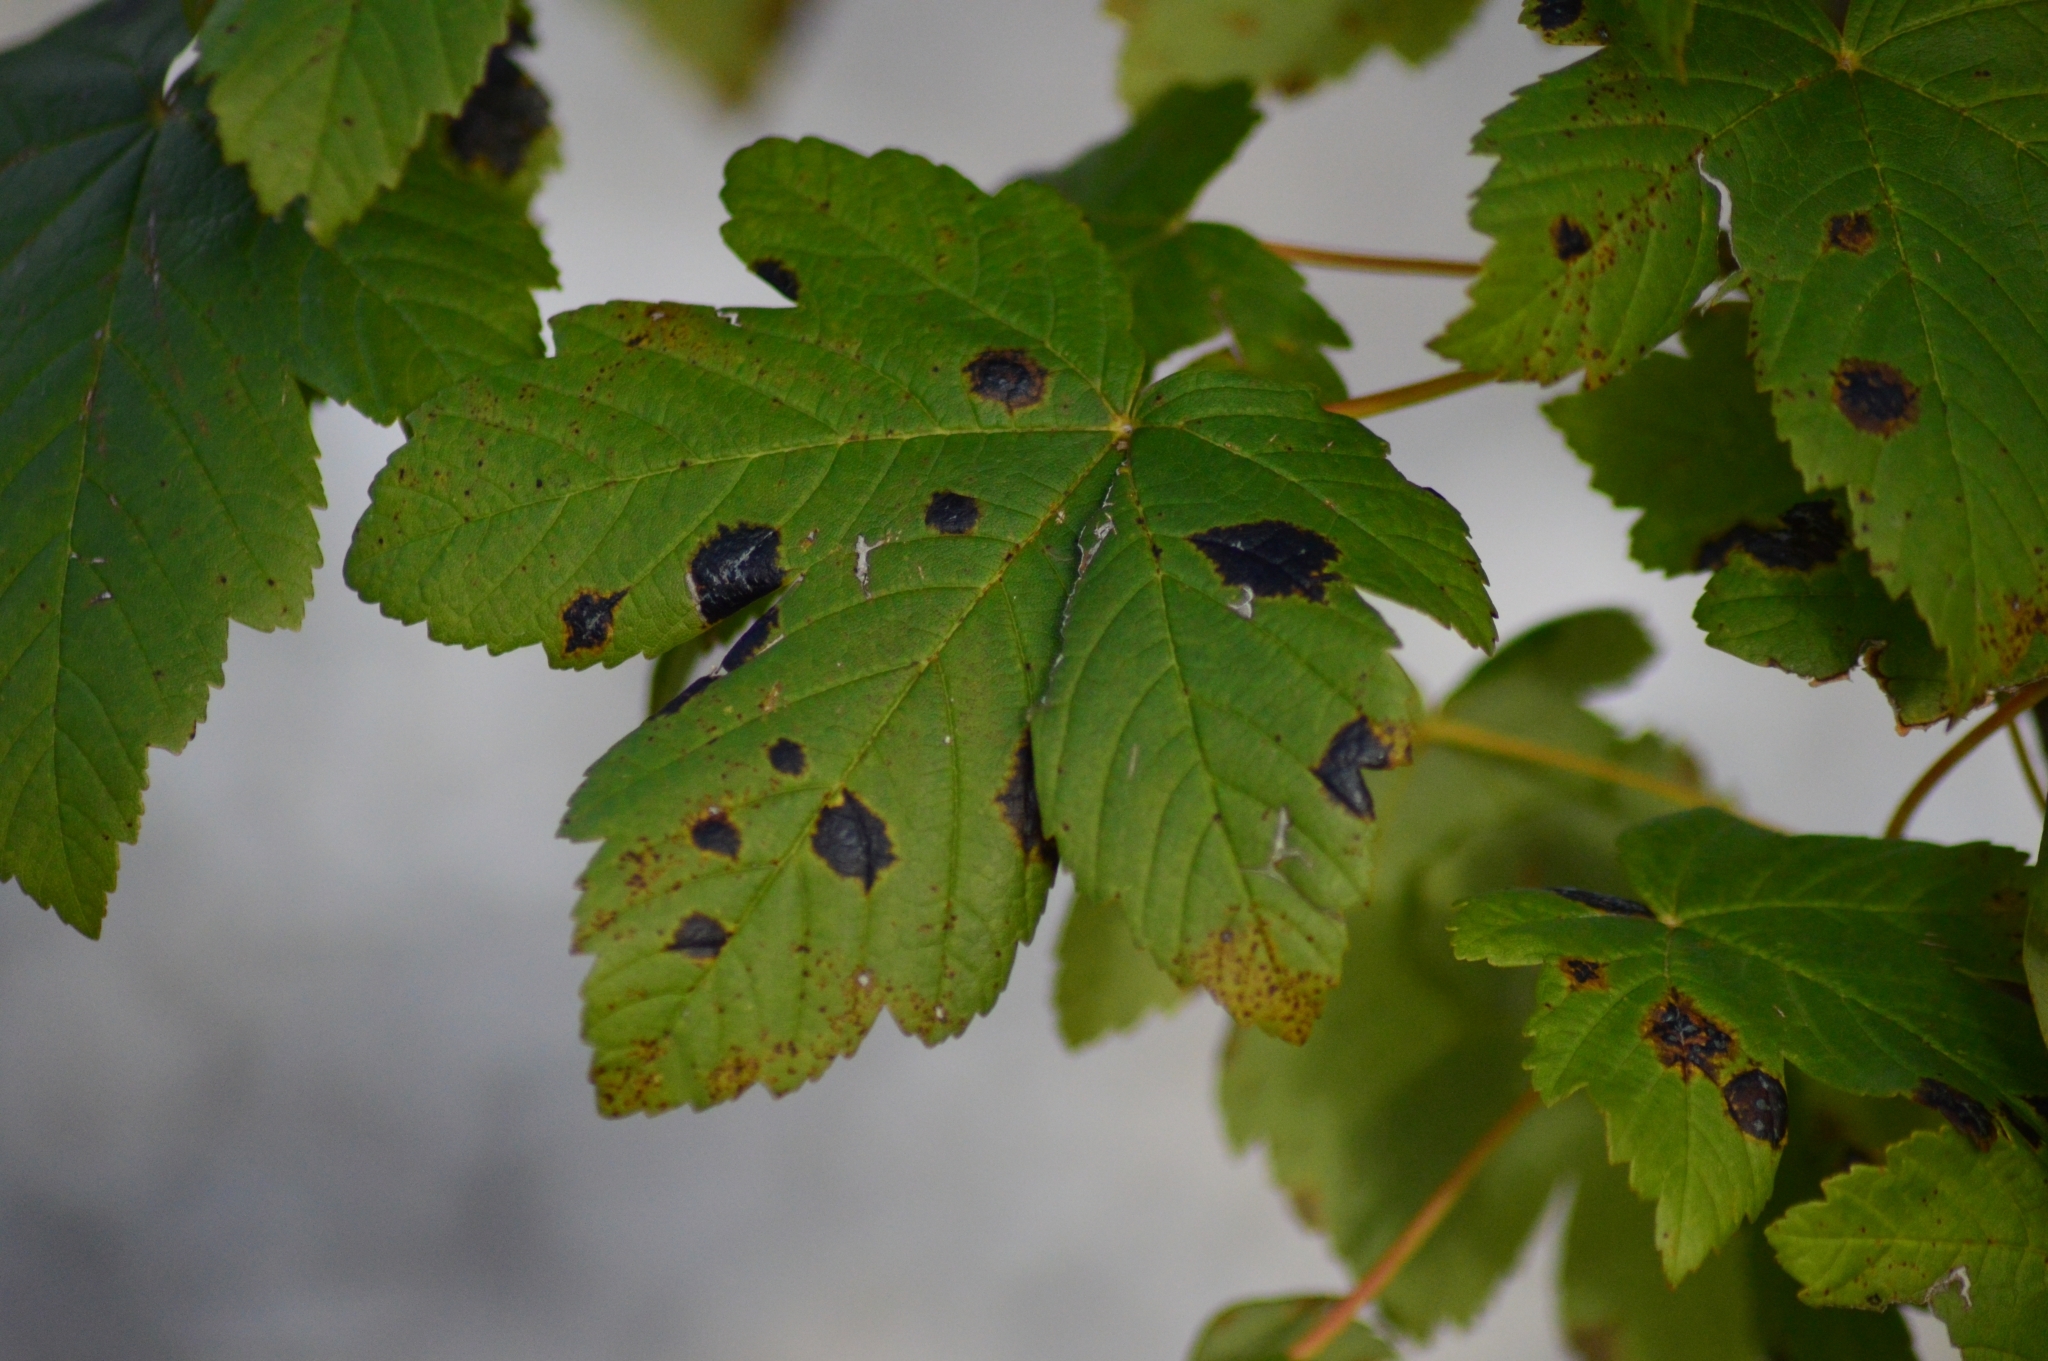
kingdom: Plantae
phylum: Tracheophyta
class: Magnoliopsida
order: Sapindales
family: Sapindaceae
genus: Acer
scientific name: Acer pseudoplatanus
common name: Sycamore
